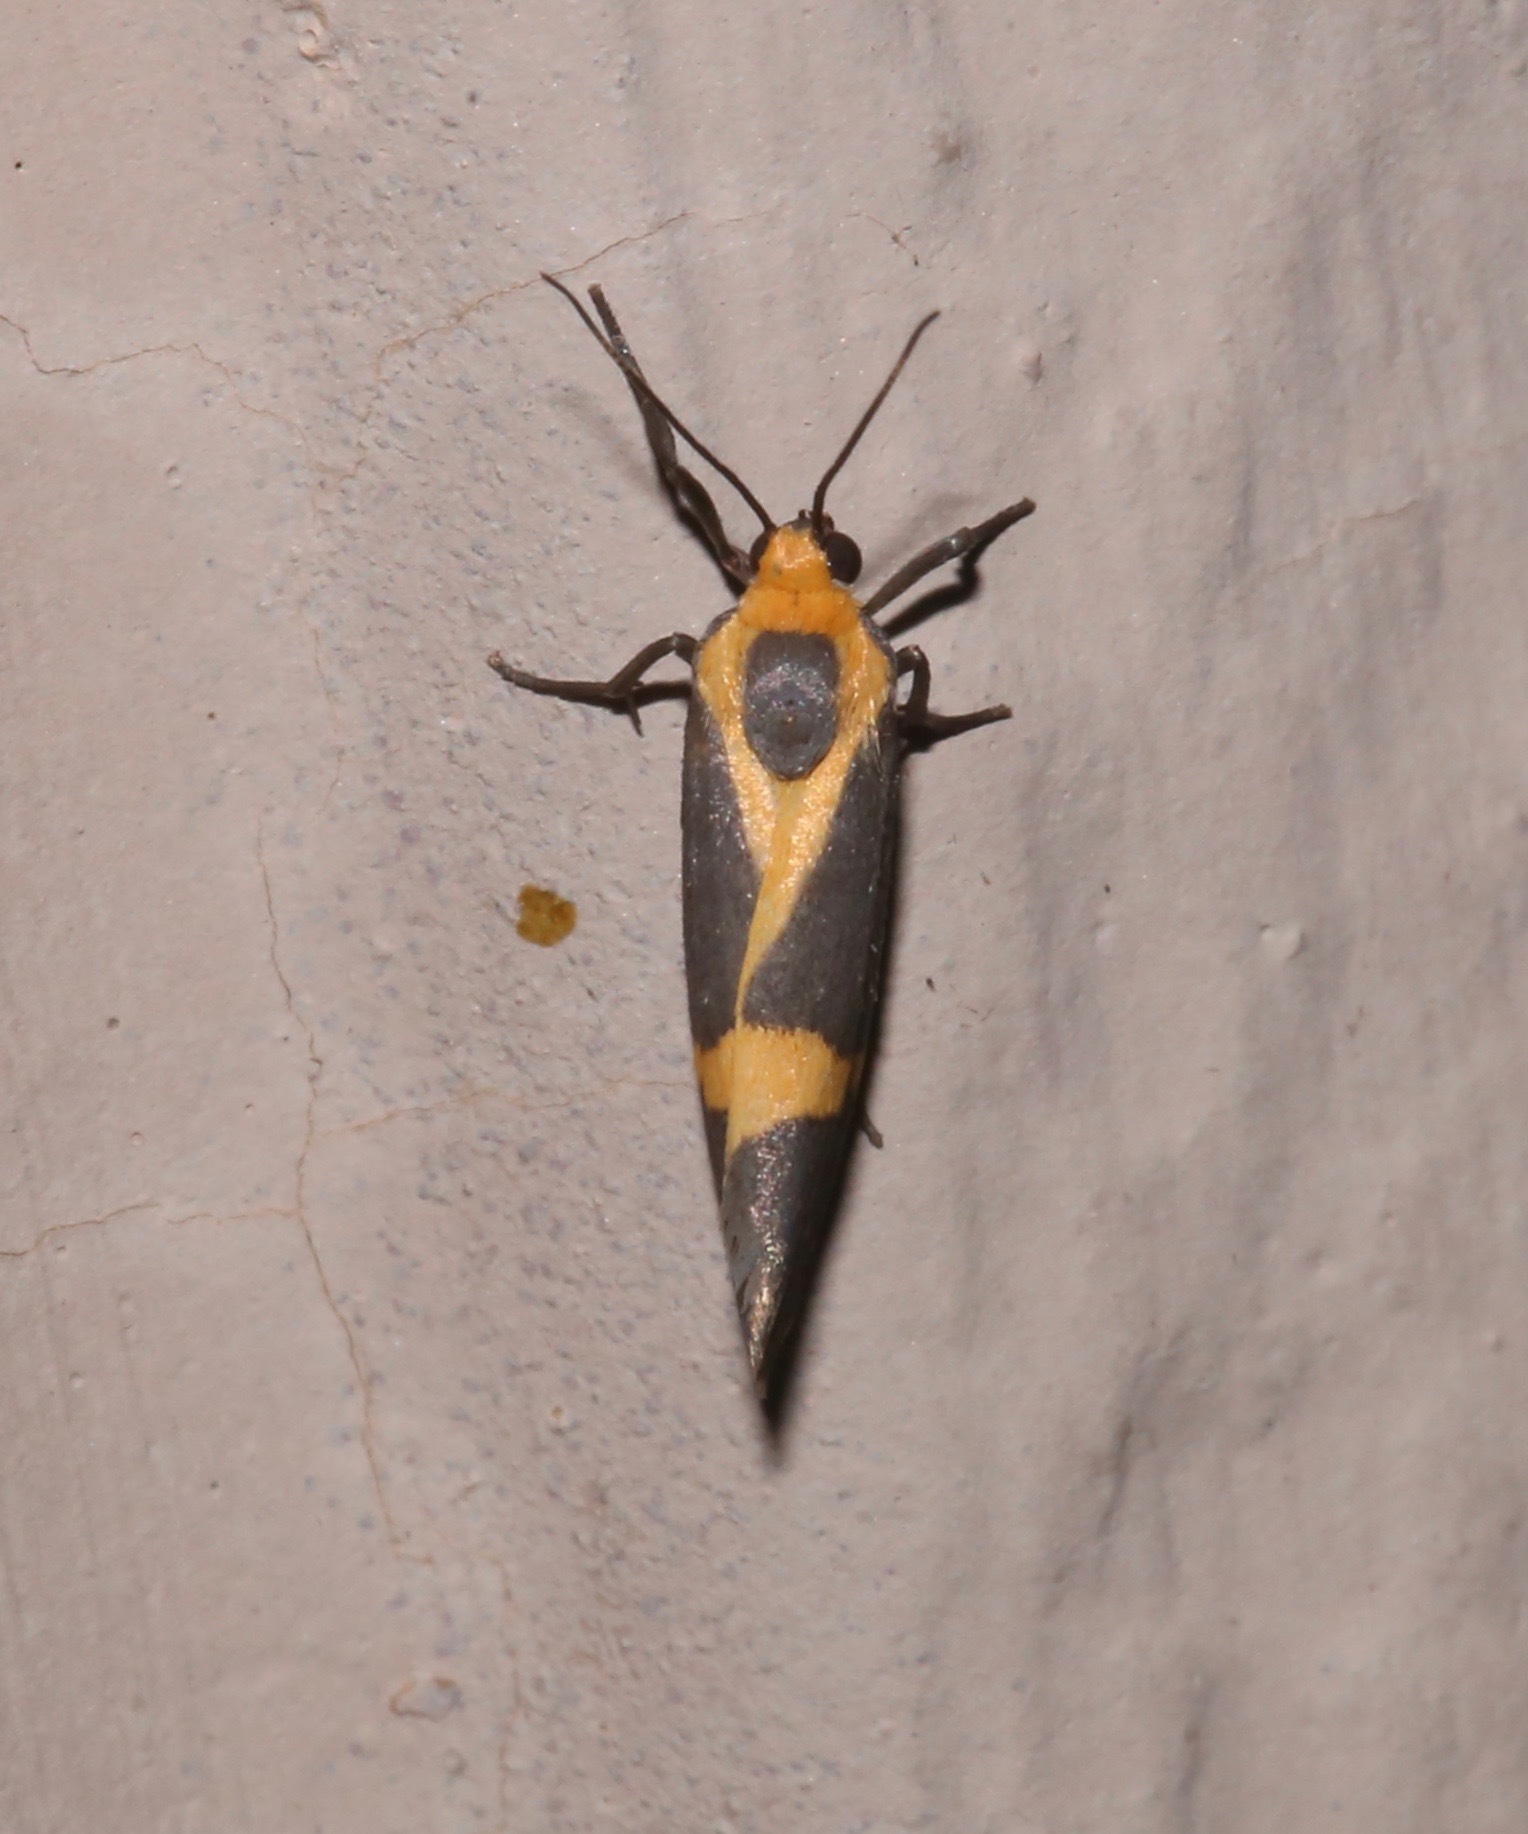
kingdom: Animalia
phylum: Arthropoda
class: Insecta
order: Lepidoptera
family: Erebidae
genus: Cisthene
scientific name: Cisthene tenuifascia
